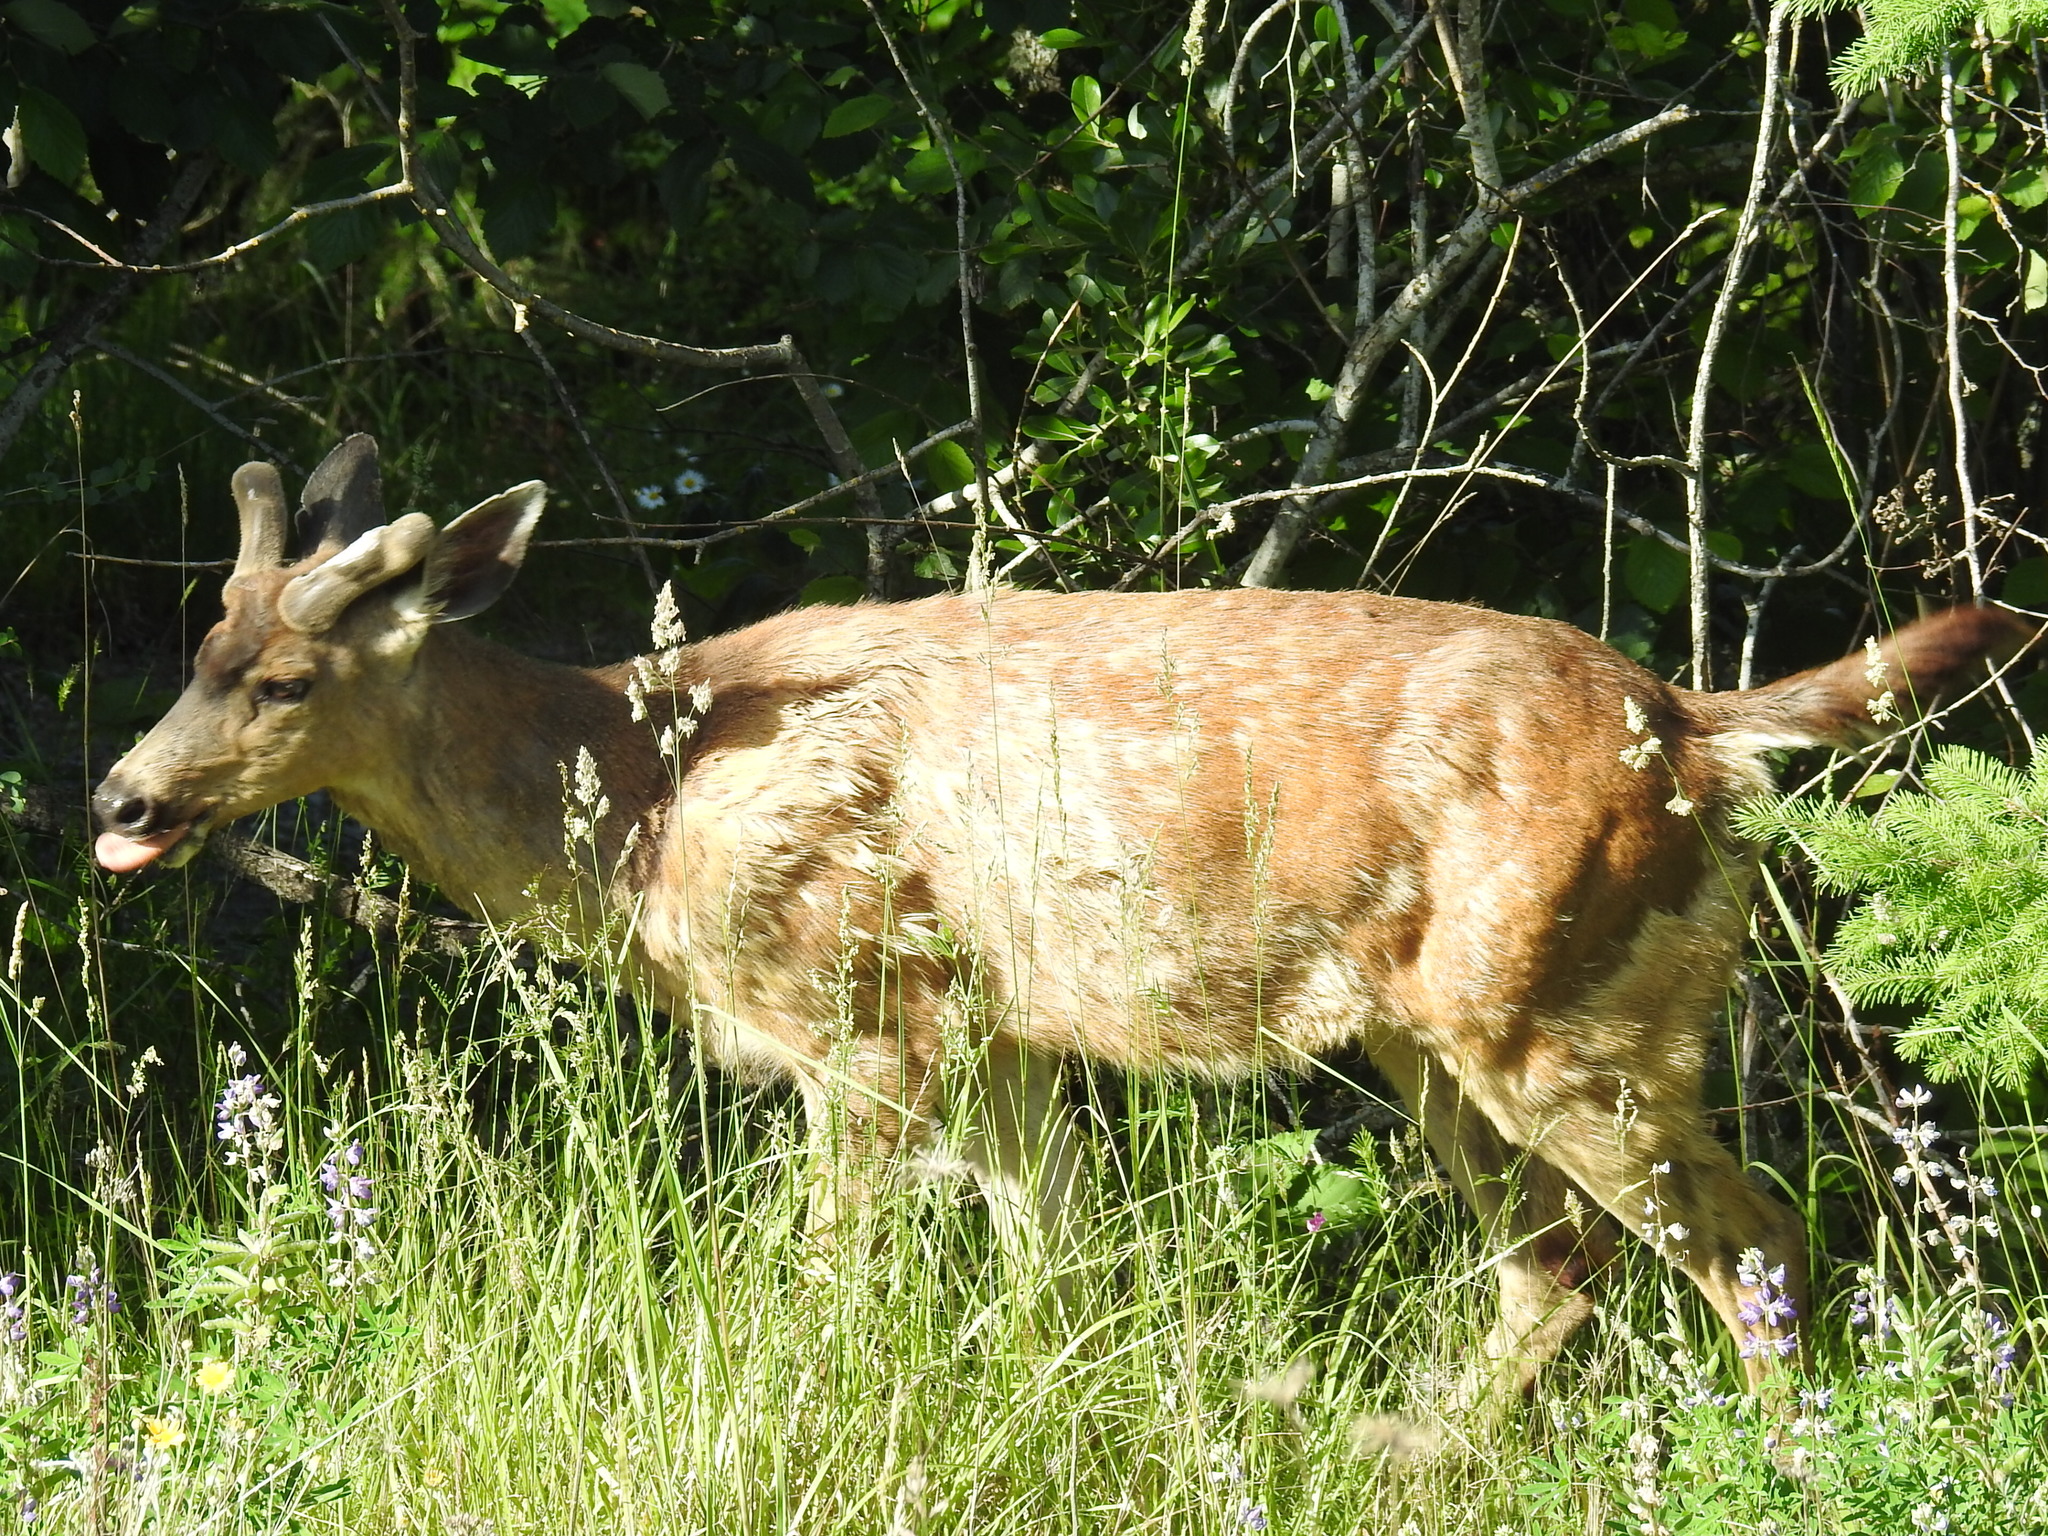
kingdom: Animalia
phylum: Chordata
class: Mammalia
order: Artiodactyla
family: Cervidae
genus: Odocoileus
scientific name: Odocoileus hemionus
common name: Mule deer
